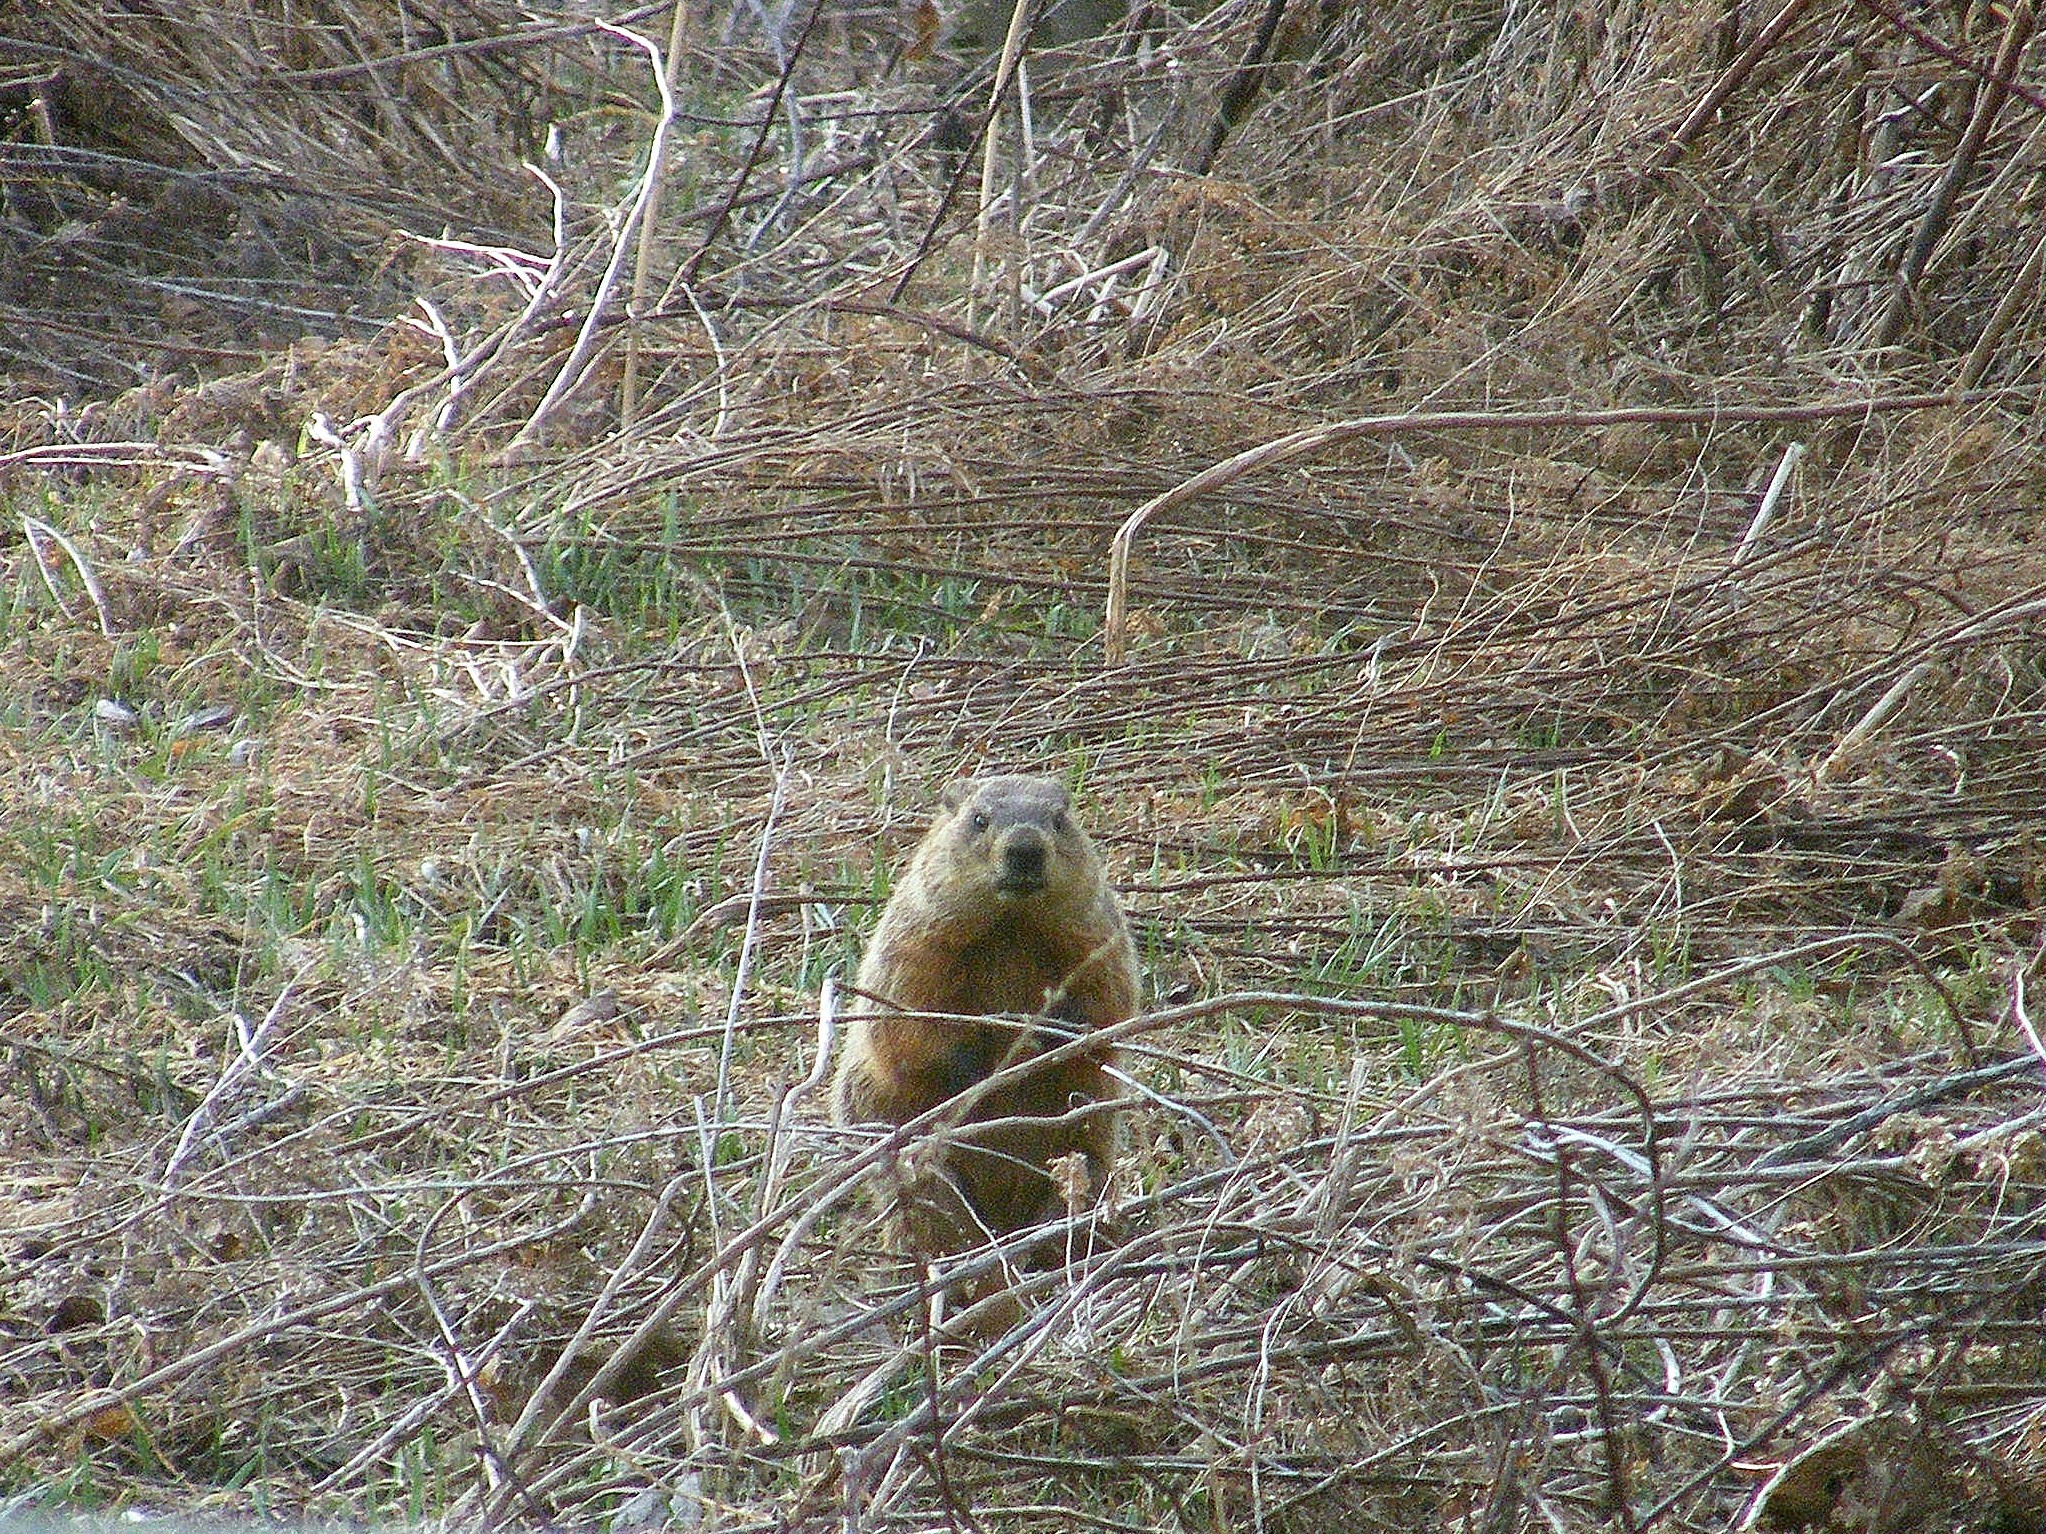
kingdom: Animalia
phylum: Chordata
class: Mammalia
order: Rodentia
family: Sciuridae
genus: Marmota
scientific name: Marmota monax
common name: Groundhog
